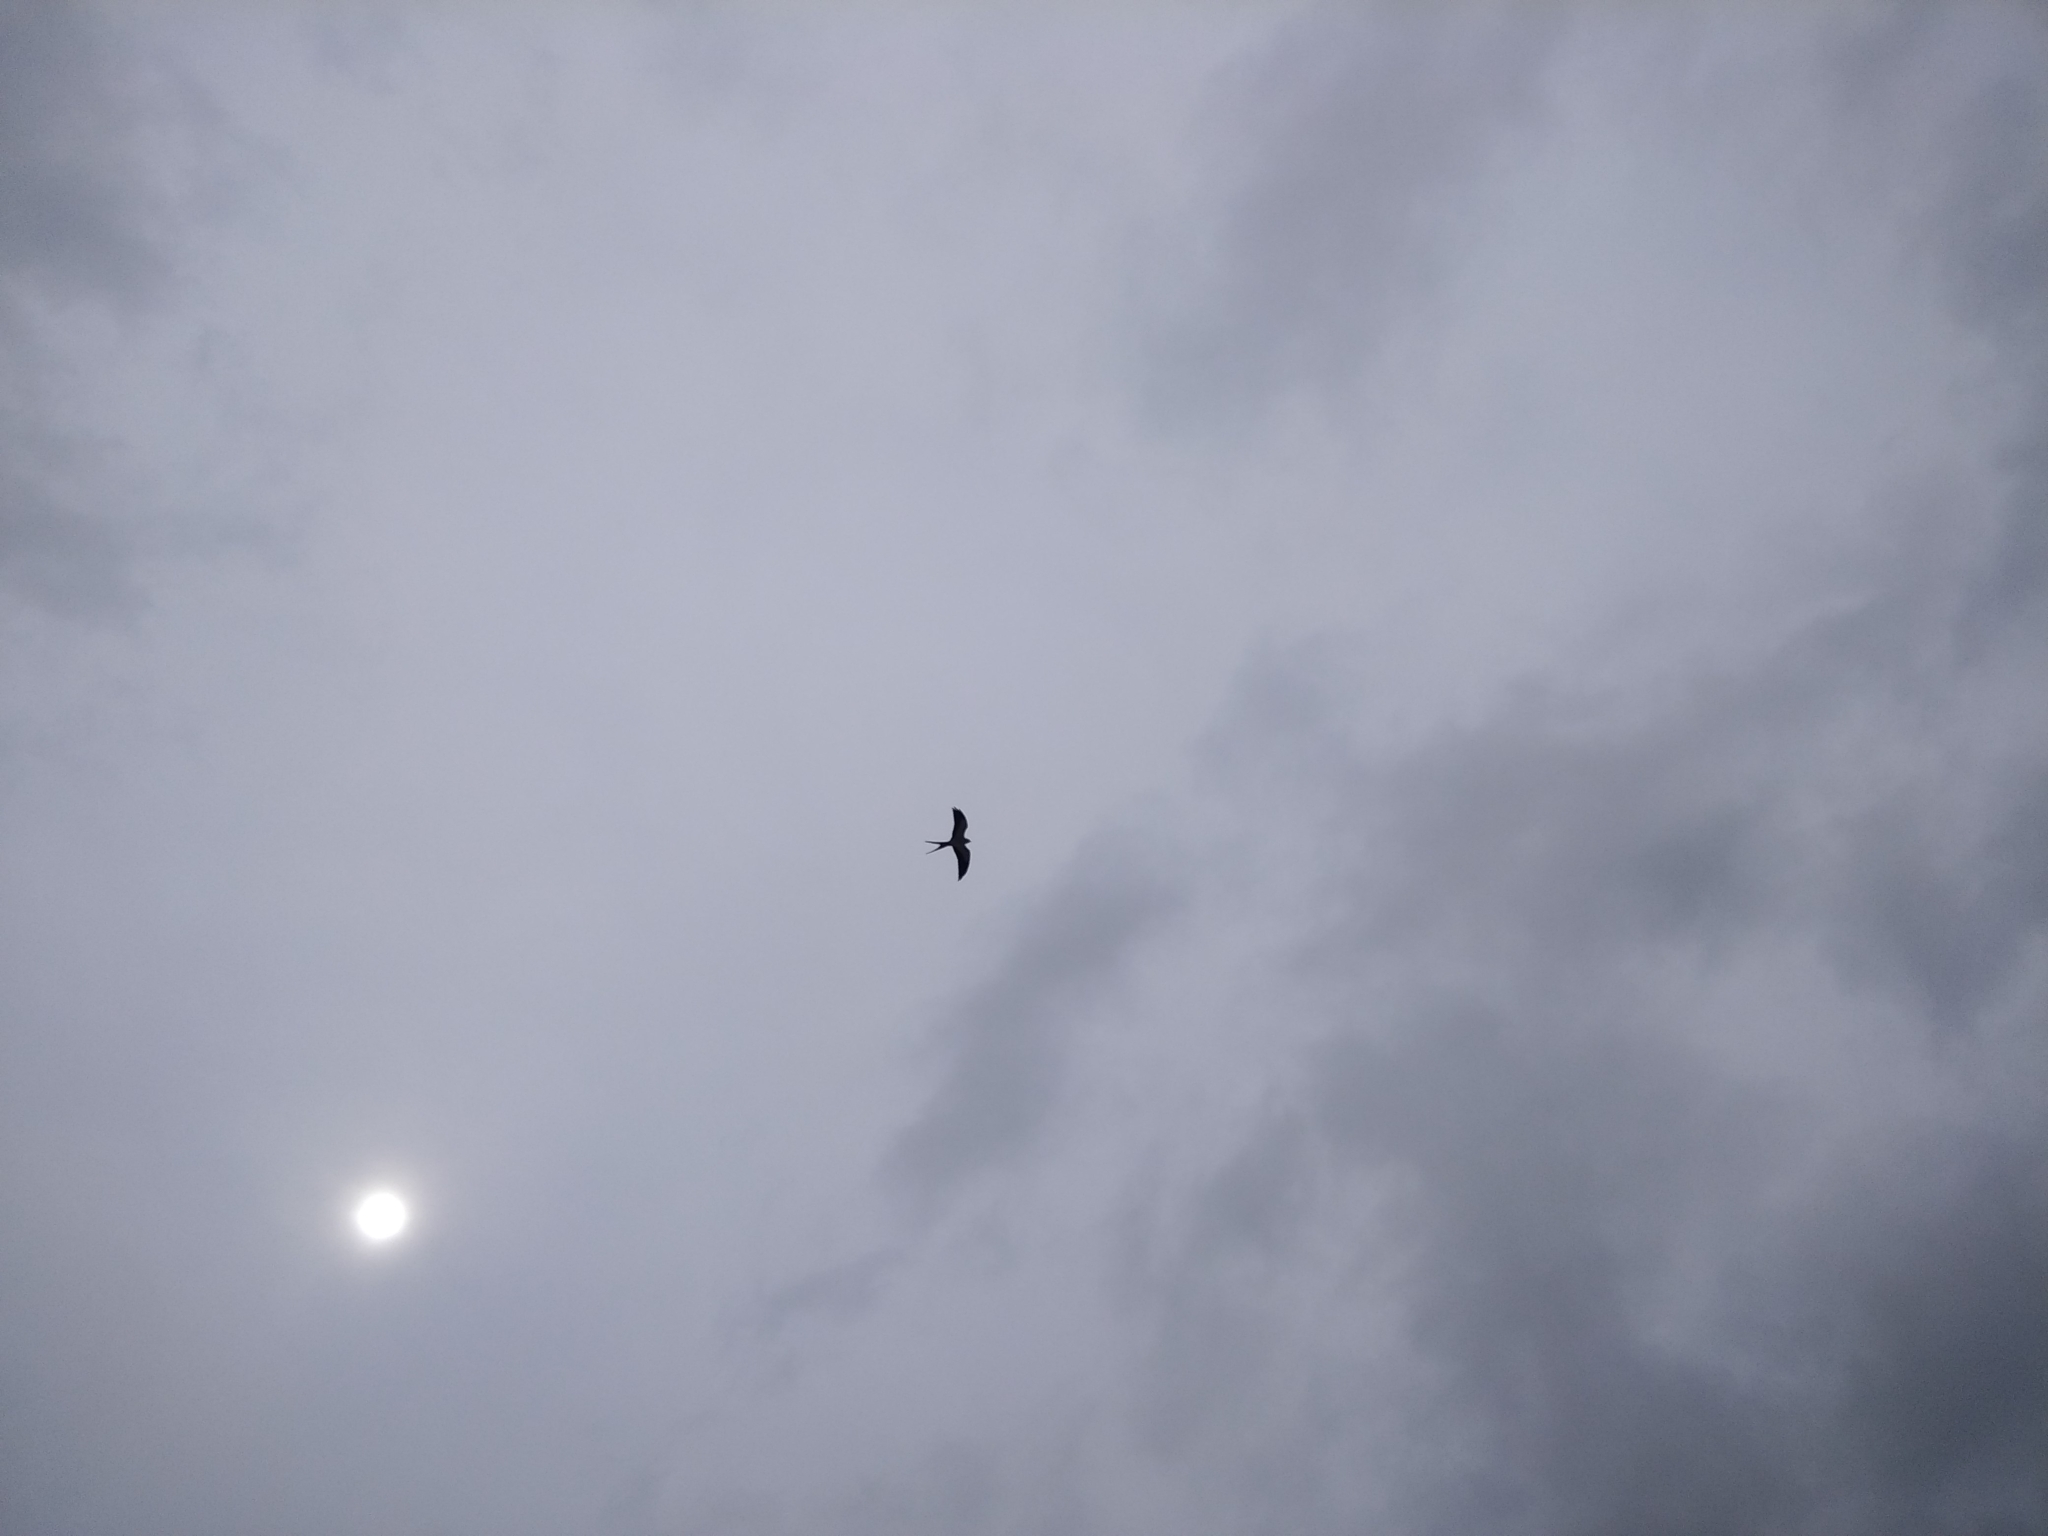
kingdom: Animalia
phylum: Chordata
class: Aves
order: Accipitriformes
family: Accipitridae
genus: Elanoides
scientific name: Elanoides forficatus
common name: Swallow-tailed kite
